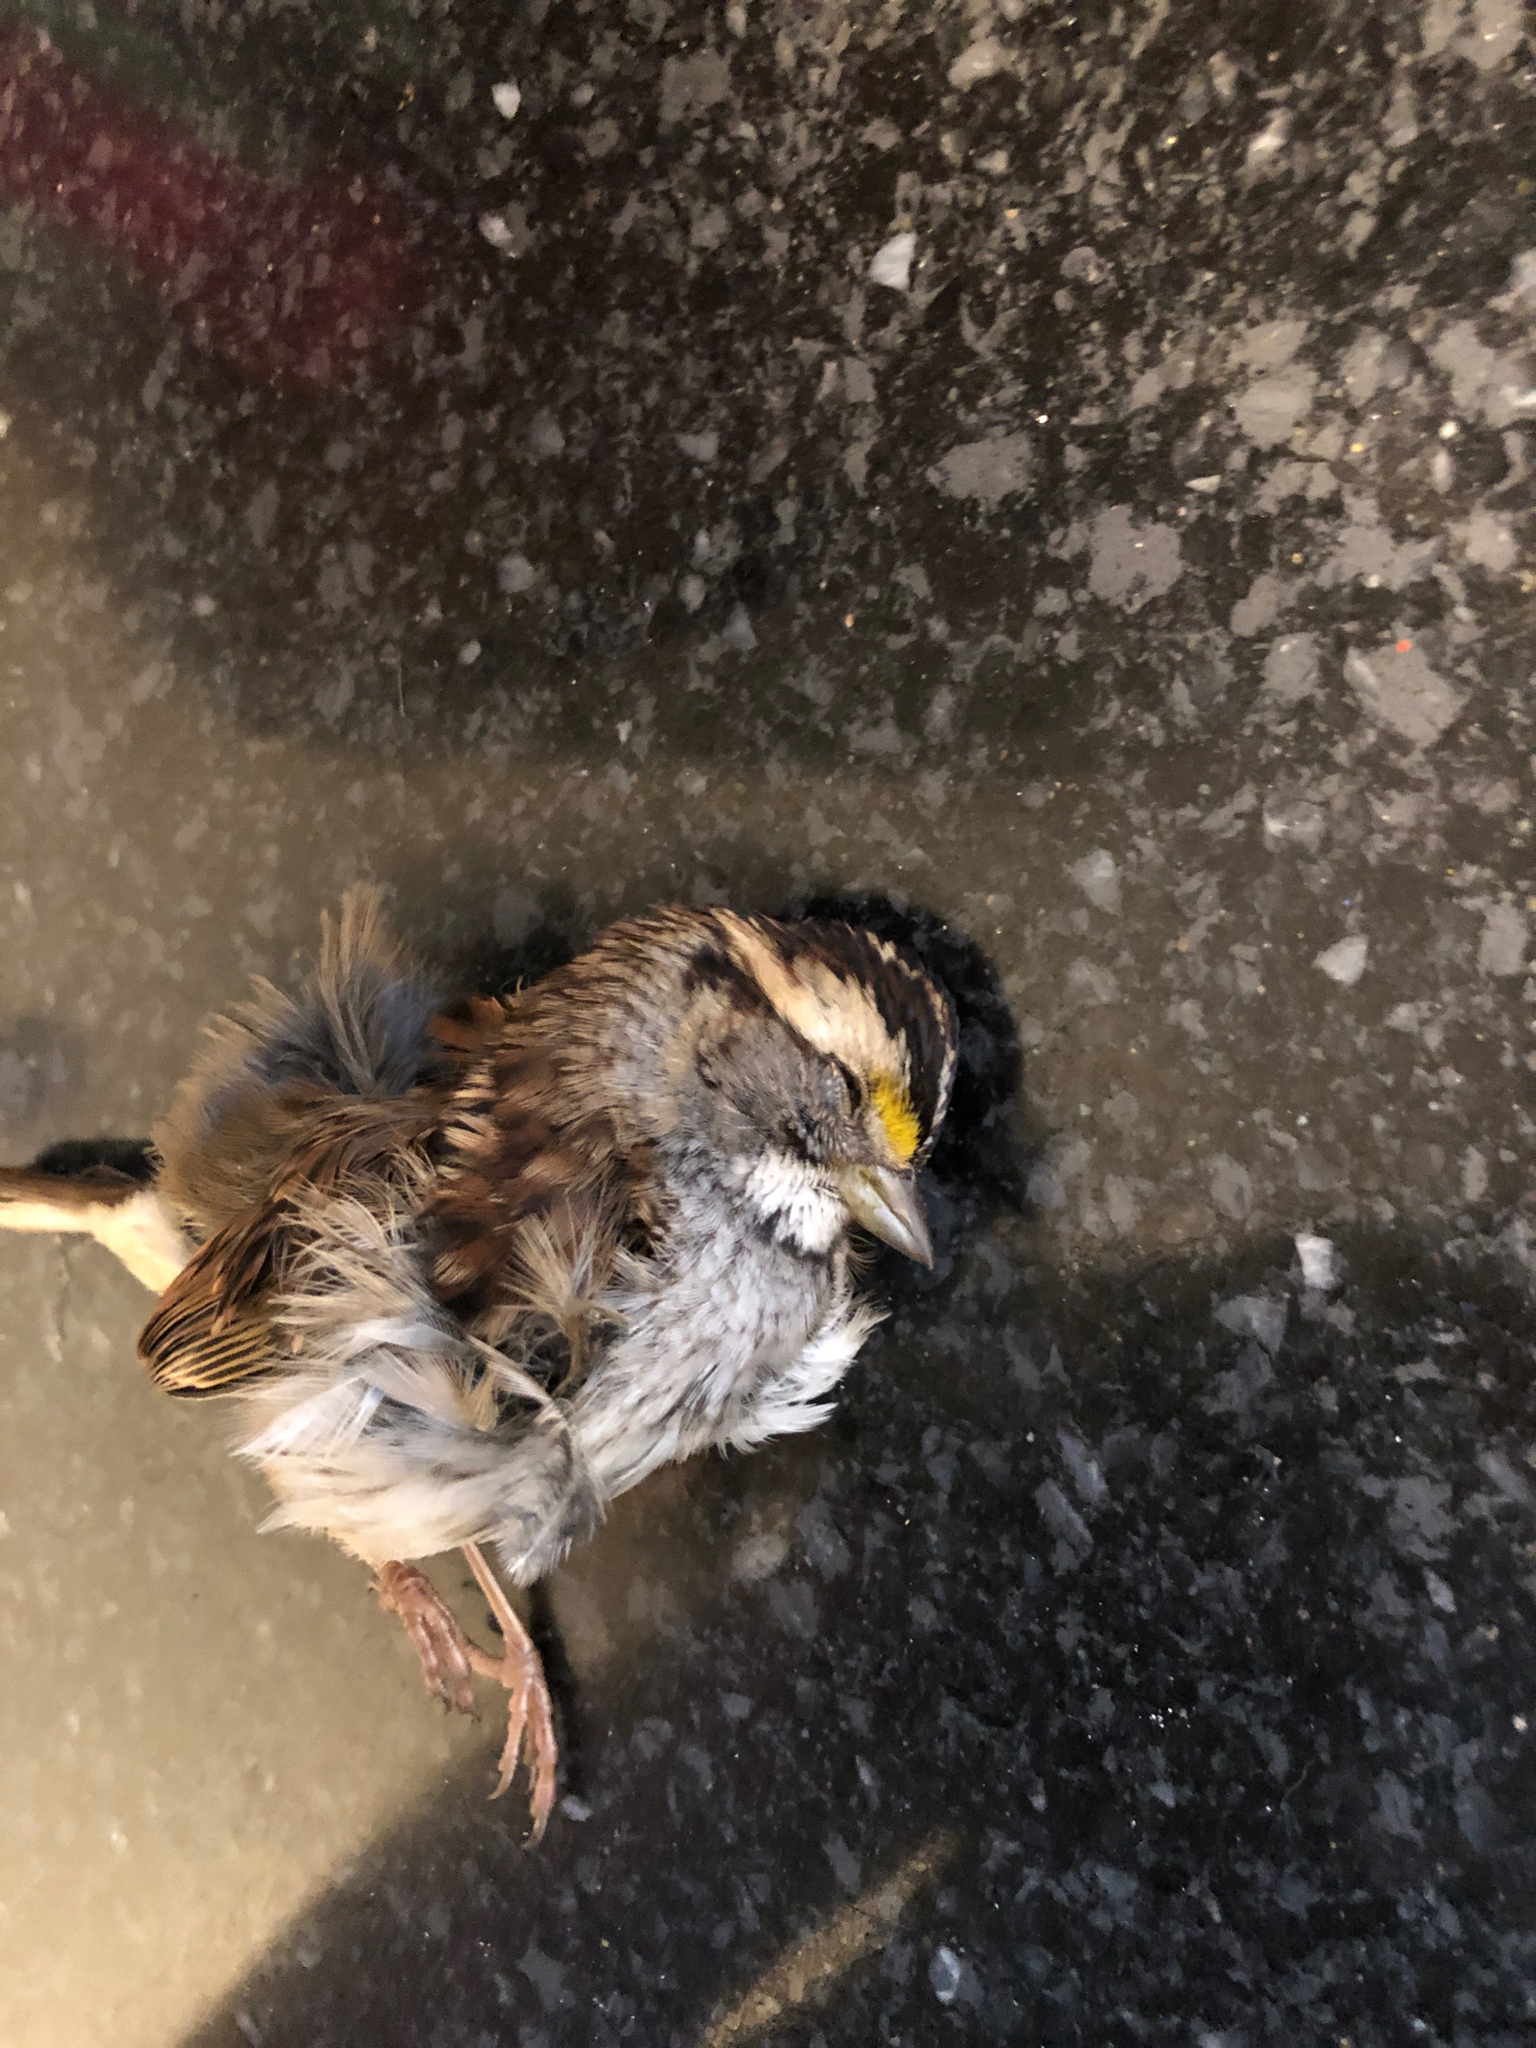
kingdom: Animalia
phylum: Chordata
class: Aves
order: Passeriformes
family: Passerellidae
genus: Zonotrichia
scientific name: Zonotrichia albicollis
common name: White-throated sparrow
